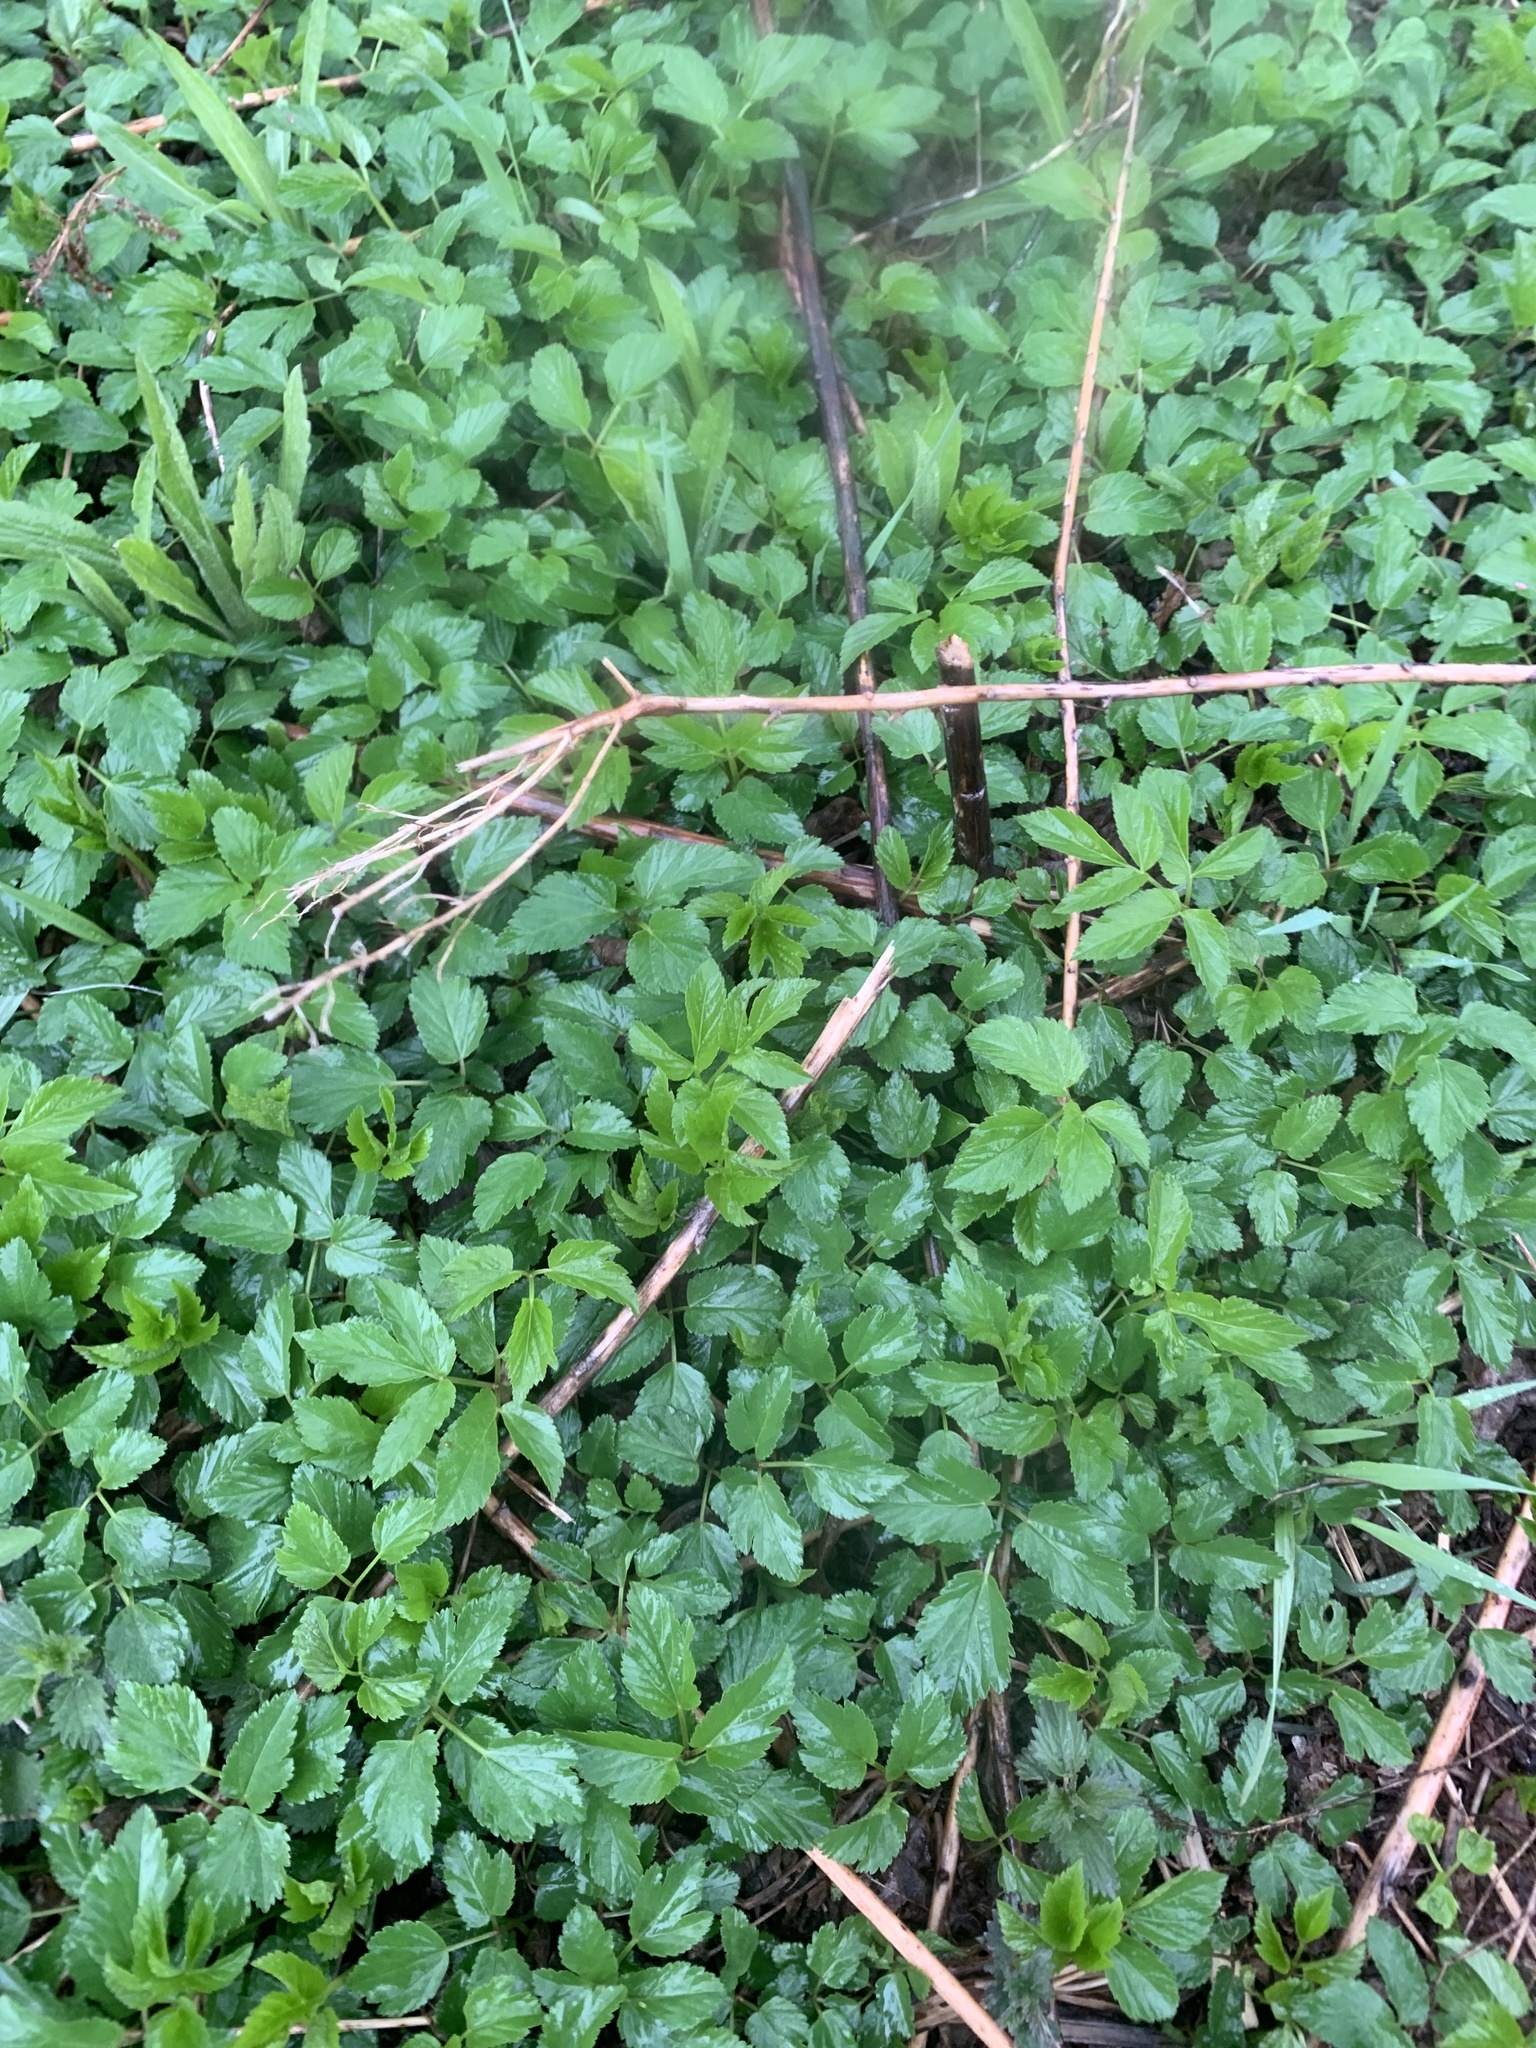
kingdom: Plantae
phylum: Tracheophyta
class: Magnoliopsida
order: Apiales
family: Apiaceae
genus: Aegopodium
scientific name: Aegopodium podagraria
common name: Ground-elder
